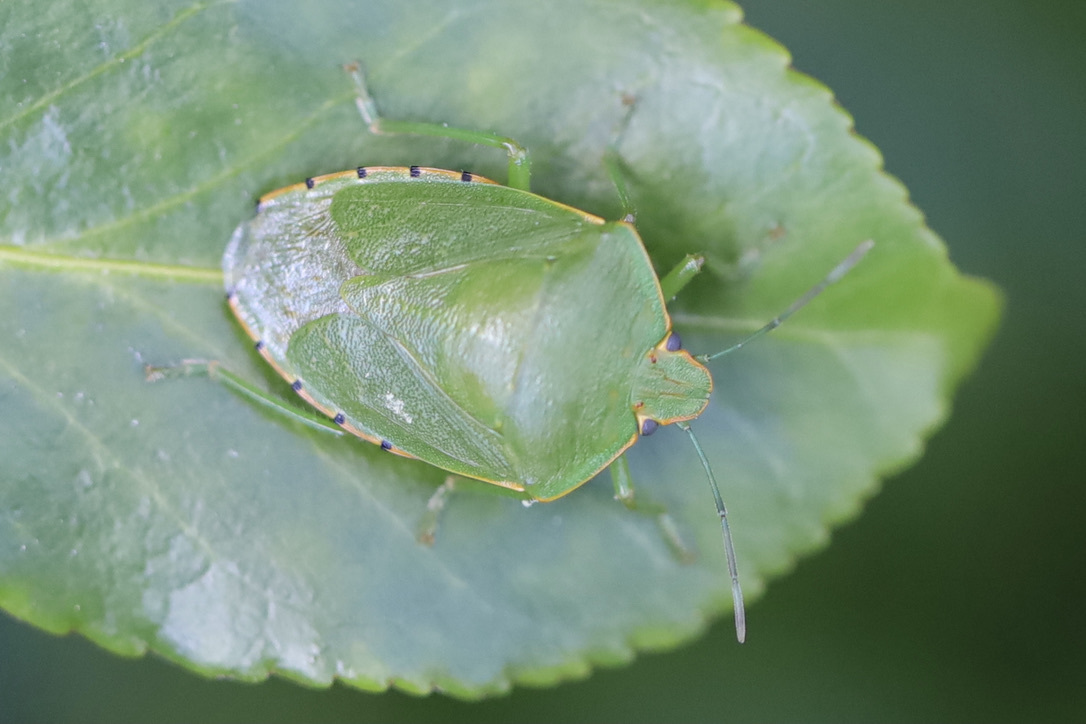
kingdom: Animalia
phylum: Arthropoda
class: Insecta
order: Hemiptera
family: Pentatomidae
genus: Chinavia
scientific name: Chinavia hilaris
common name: Green stink bug
